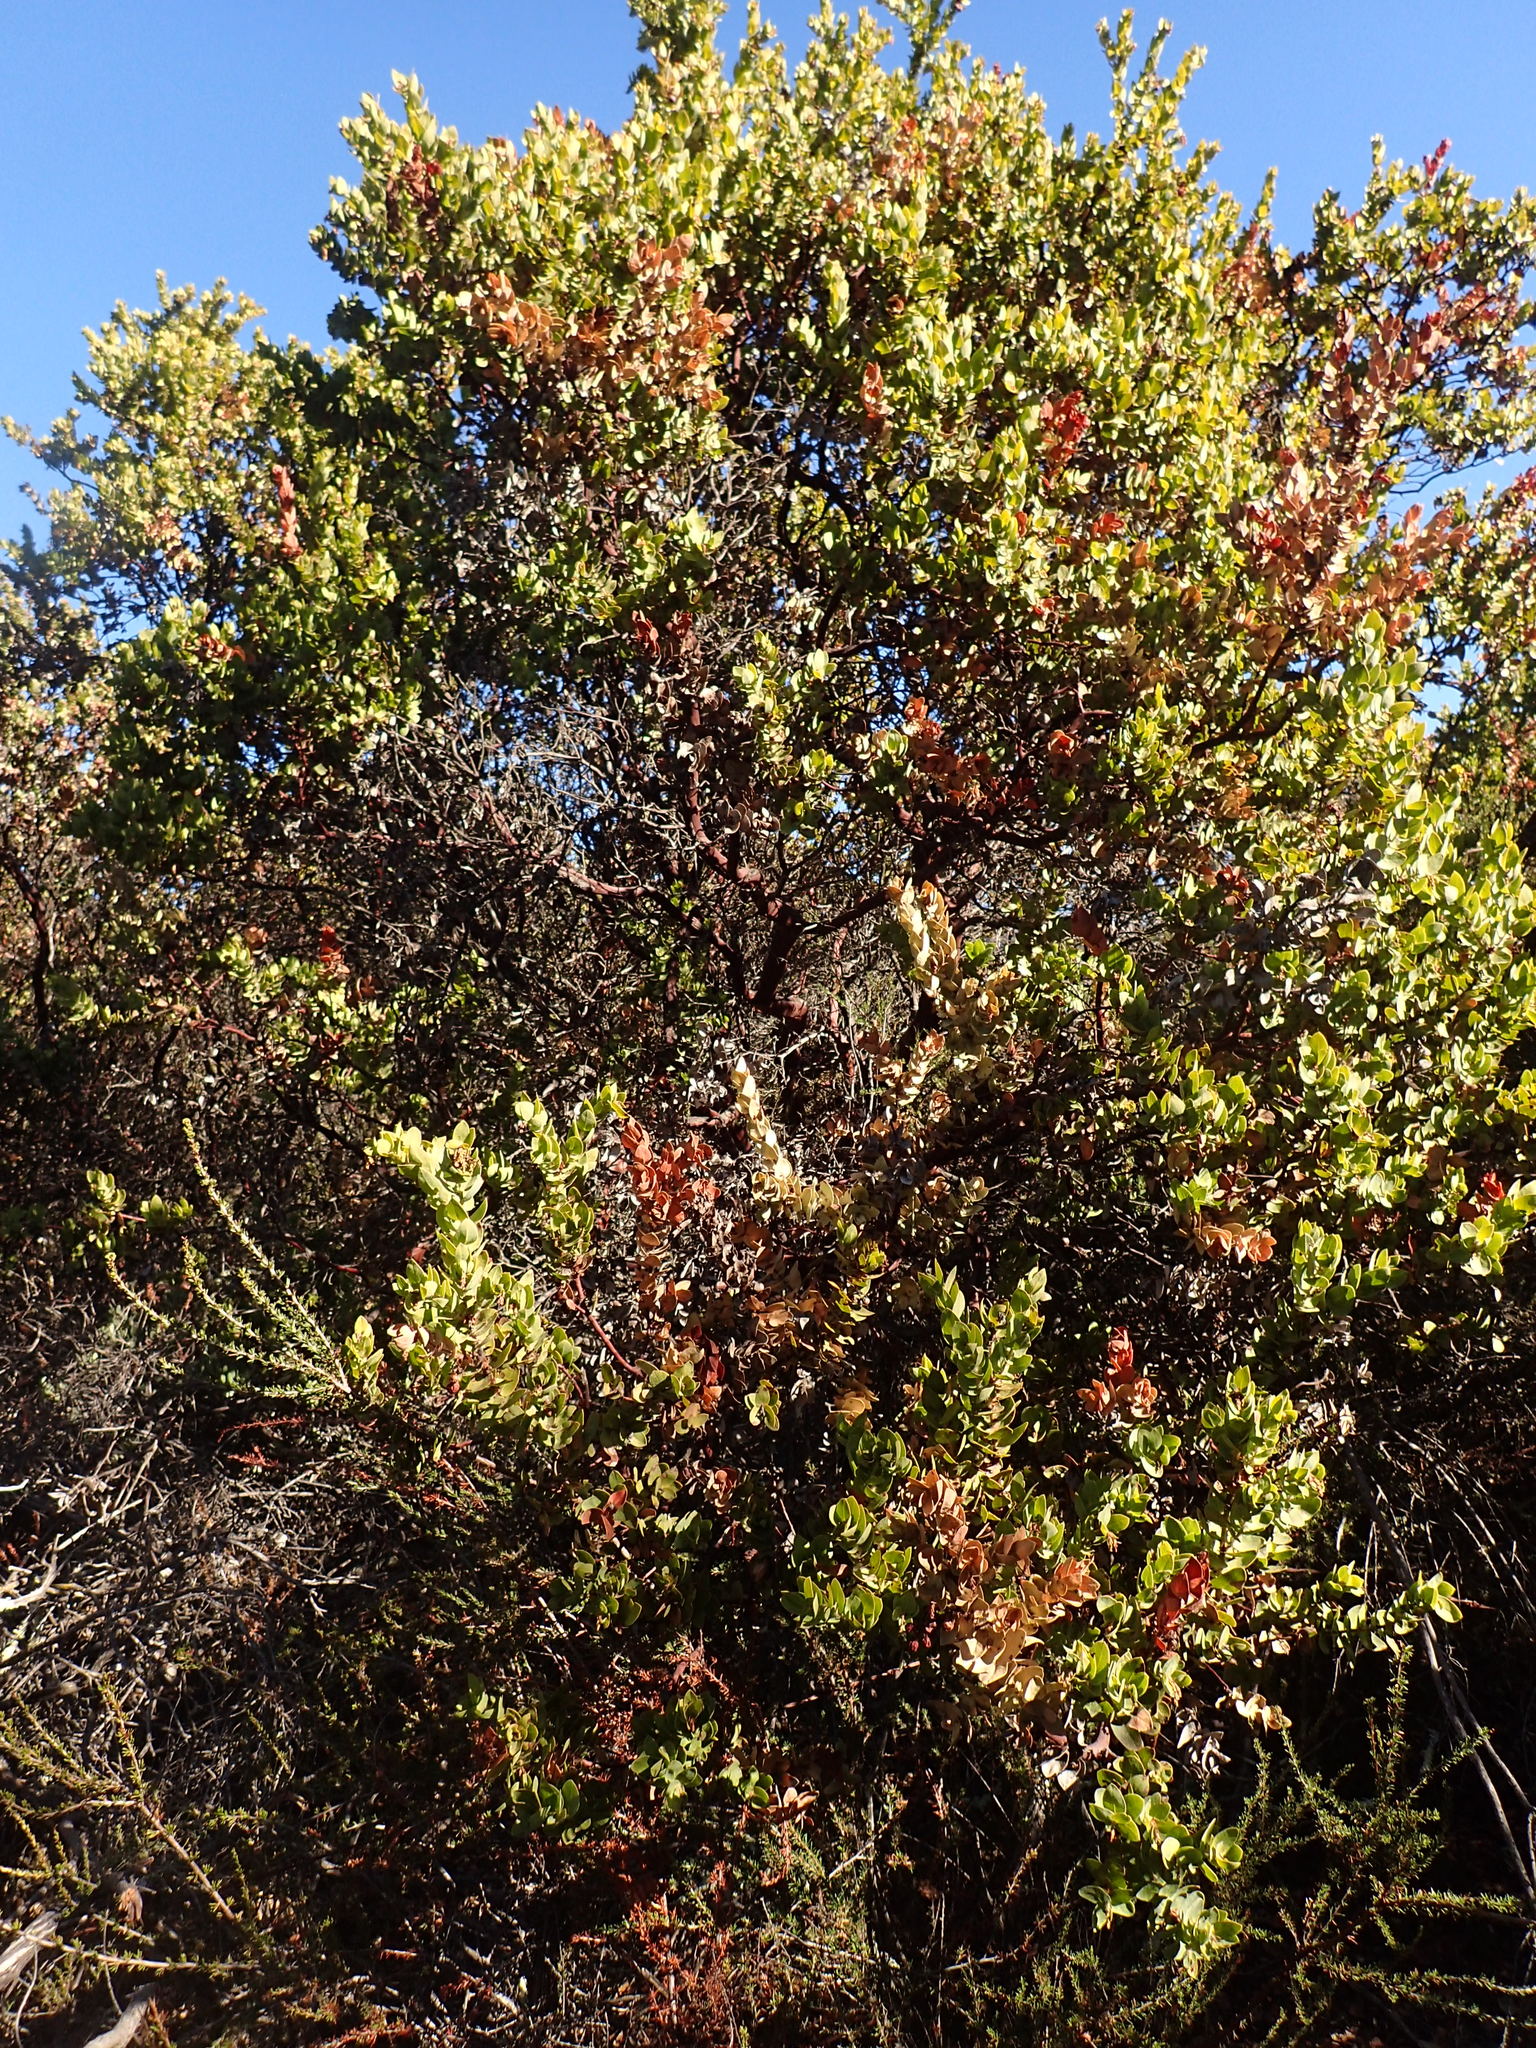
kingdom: Plantae
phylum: Tracheophyta
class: Magnoliopsida
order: Ericales
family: Ericaceae
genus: Arctostaphylos
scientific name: Arctostaphylos refugioensis
